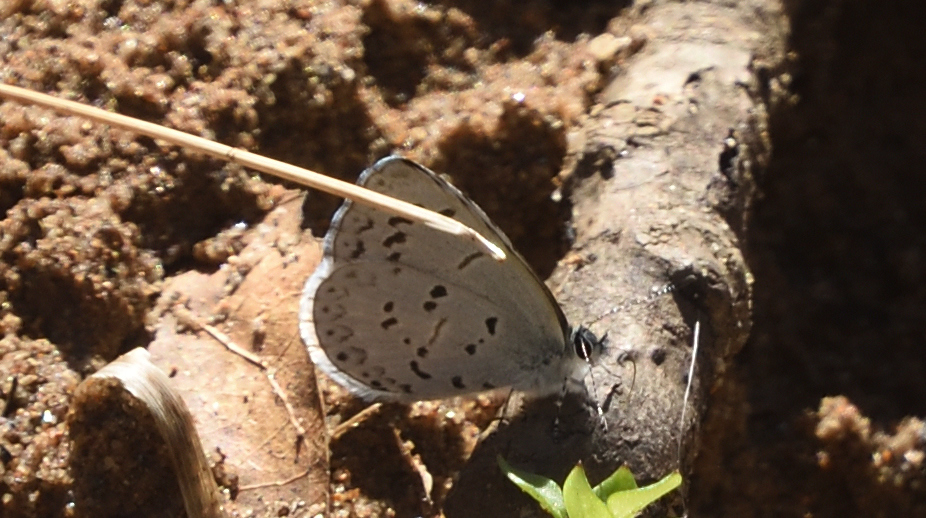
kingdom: Animalia
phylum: Arthropoda
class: Insecta
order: Lepidoptera
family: Lycaenidae
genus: Cyaniris
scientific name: Cyaniris neglecta
